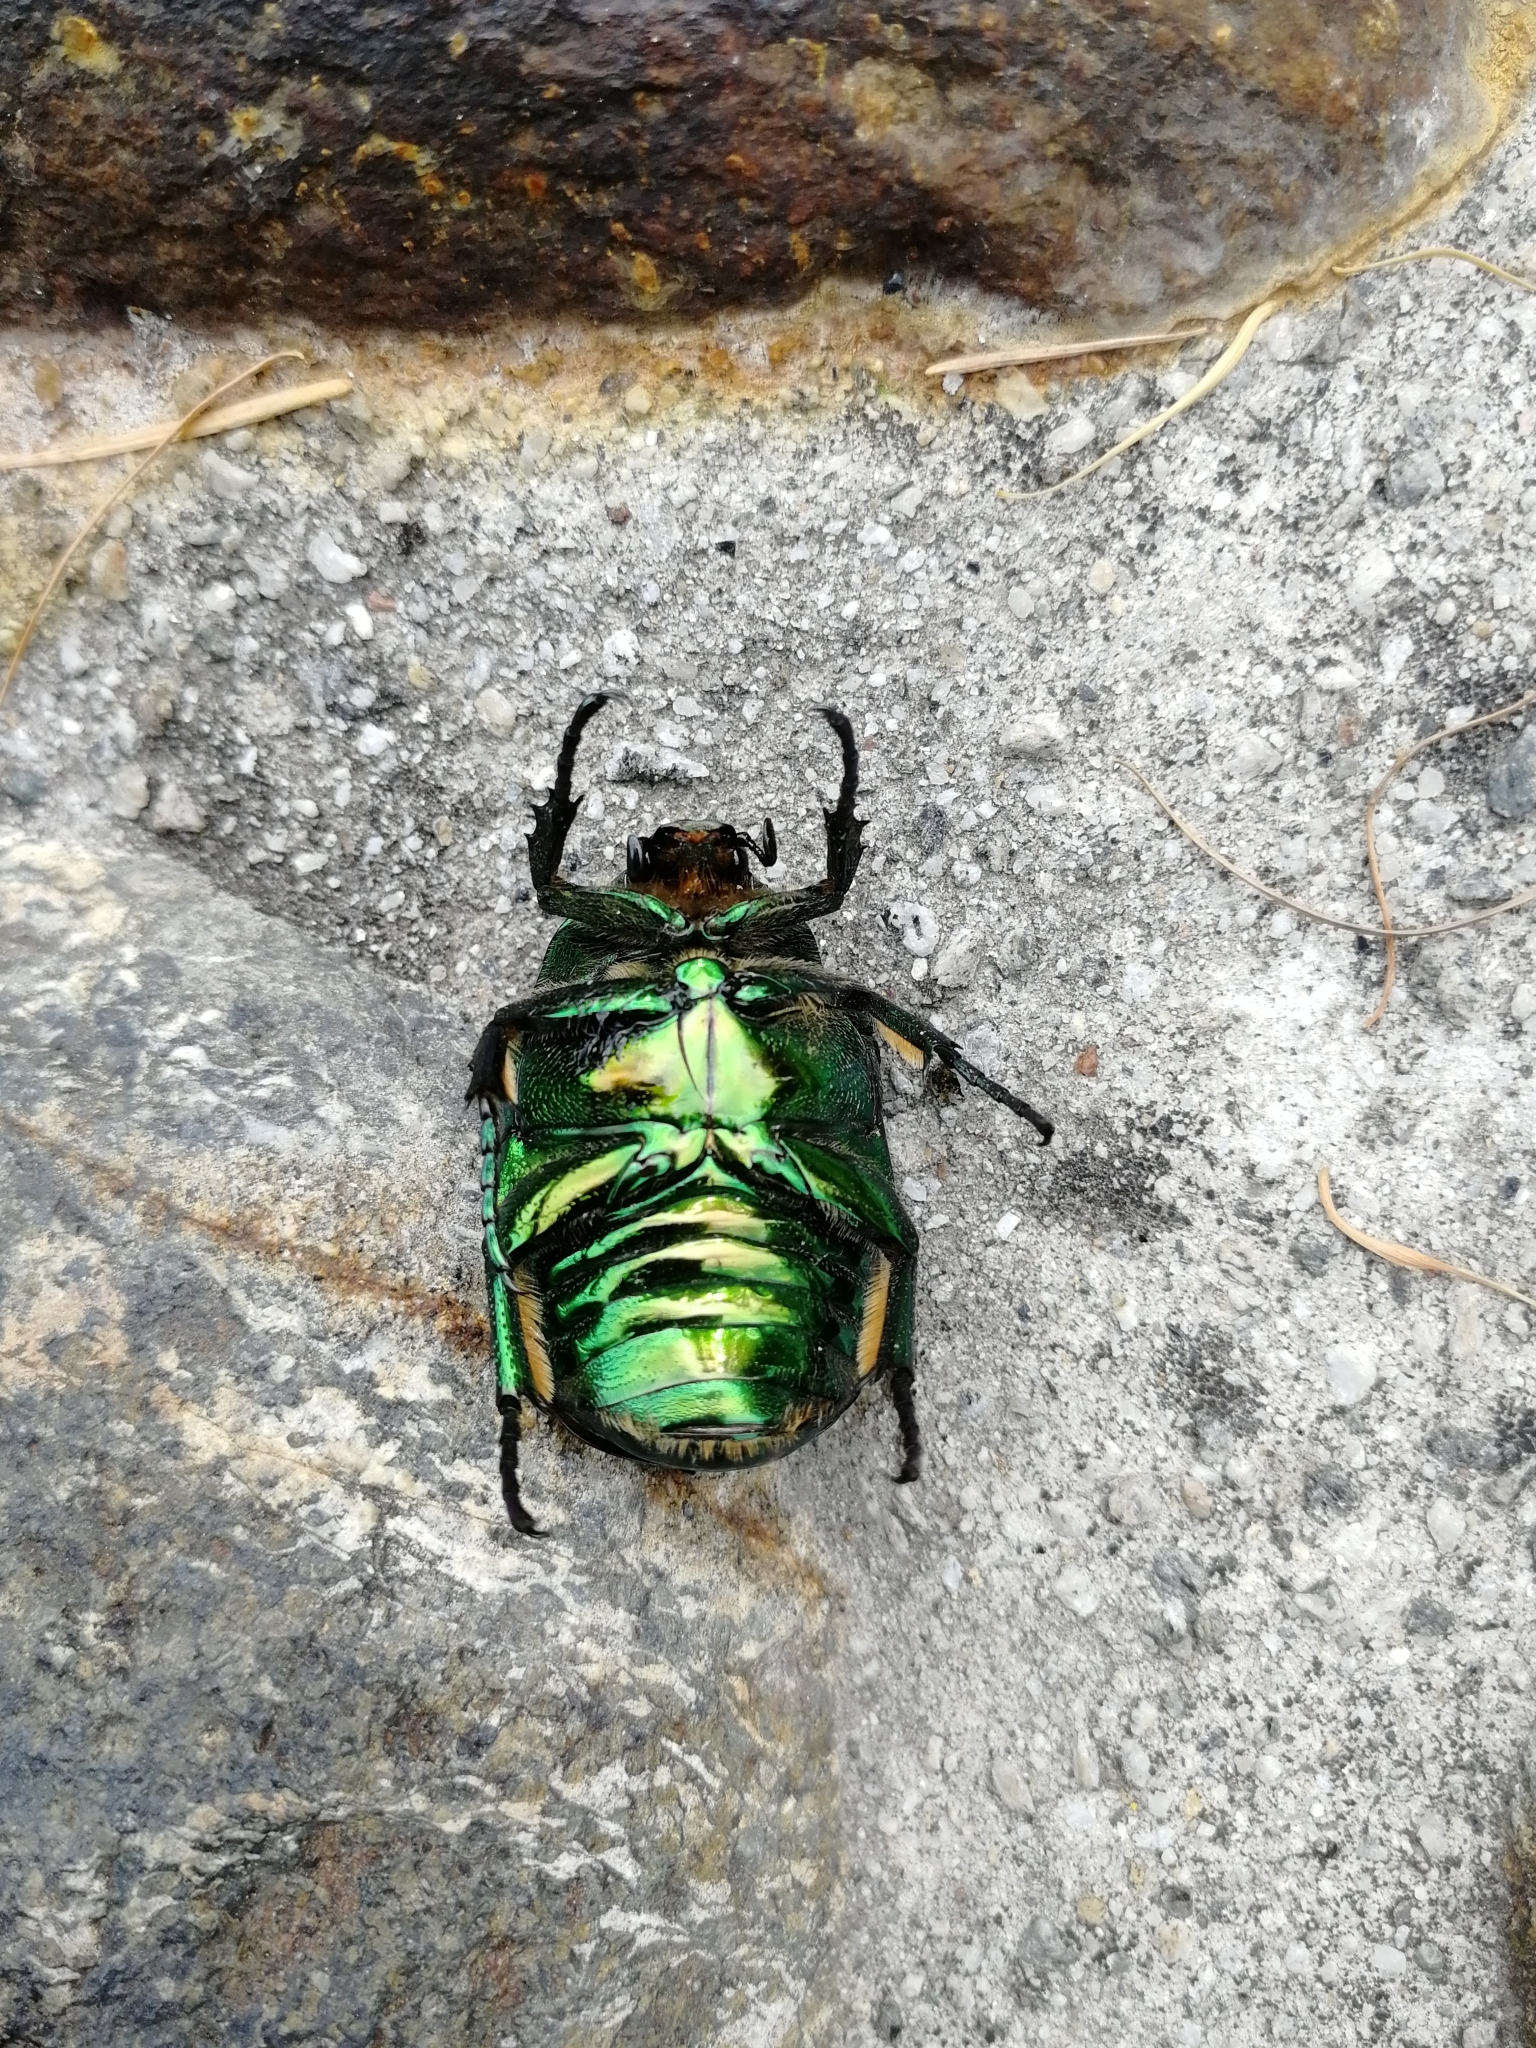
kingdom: Animalia
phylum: Arthropoda
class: Insecta
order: Coleoptera
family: Scarabaeidae
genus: Protaetia
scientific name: Protaetia speciosissima
